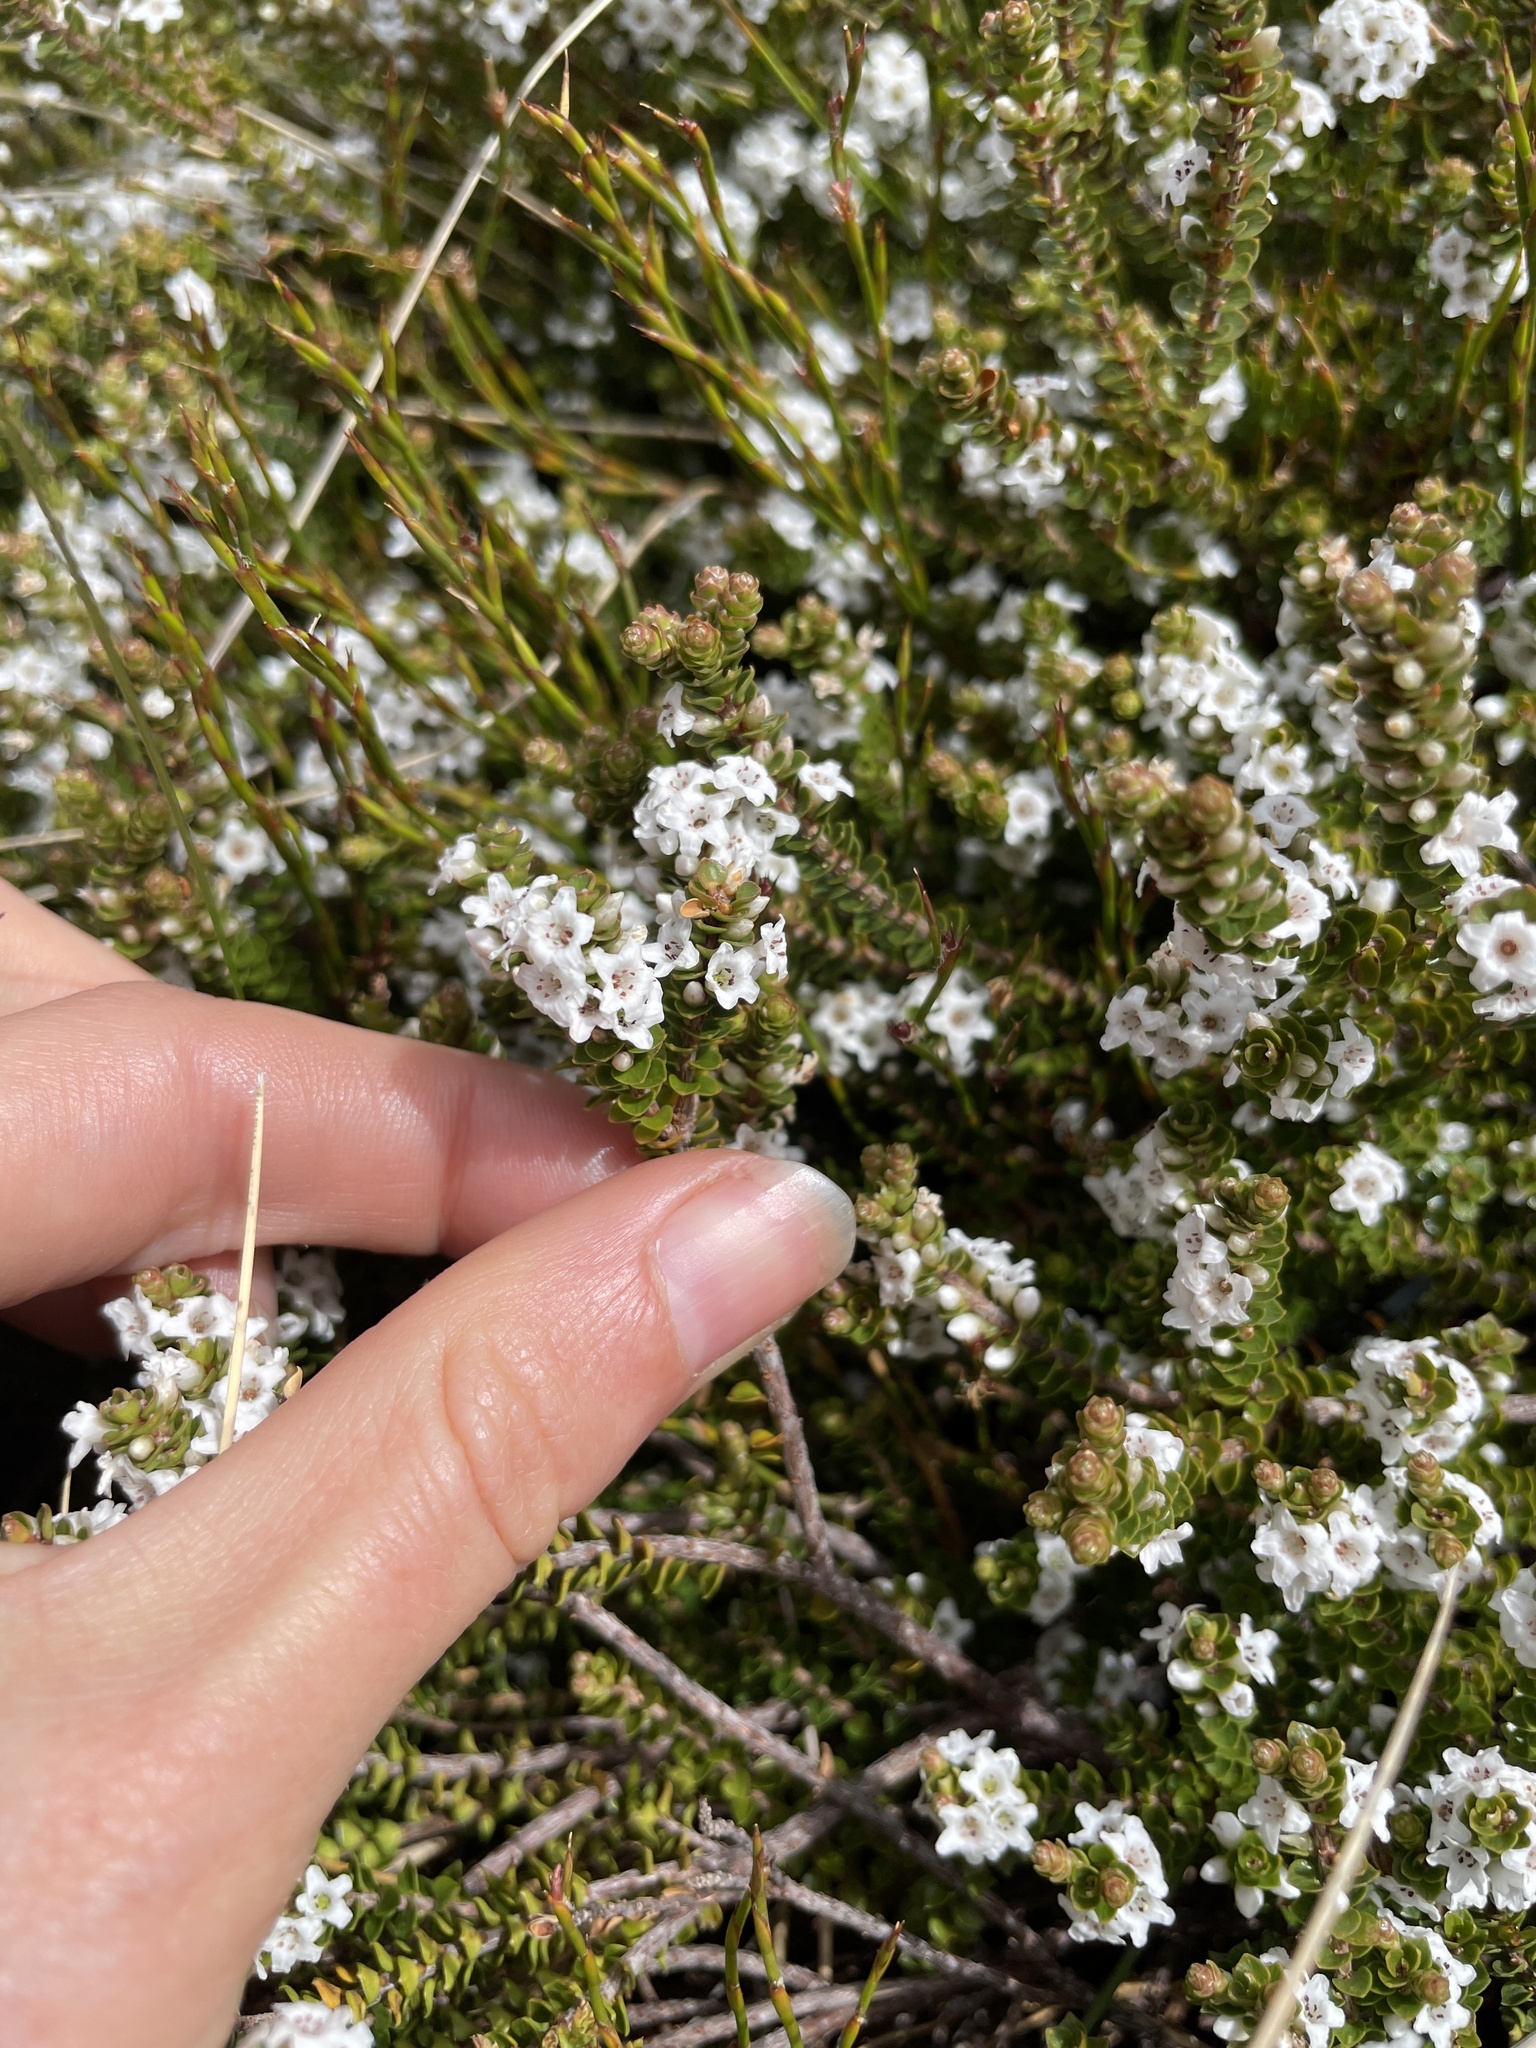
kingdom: Plantae
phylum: Tracheophyta
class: Magnoliopsida
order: Ericales
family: Ericaceae
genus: Epacris
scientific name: Epacris microphylla
